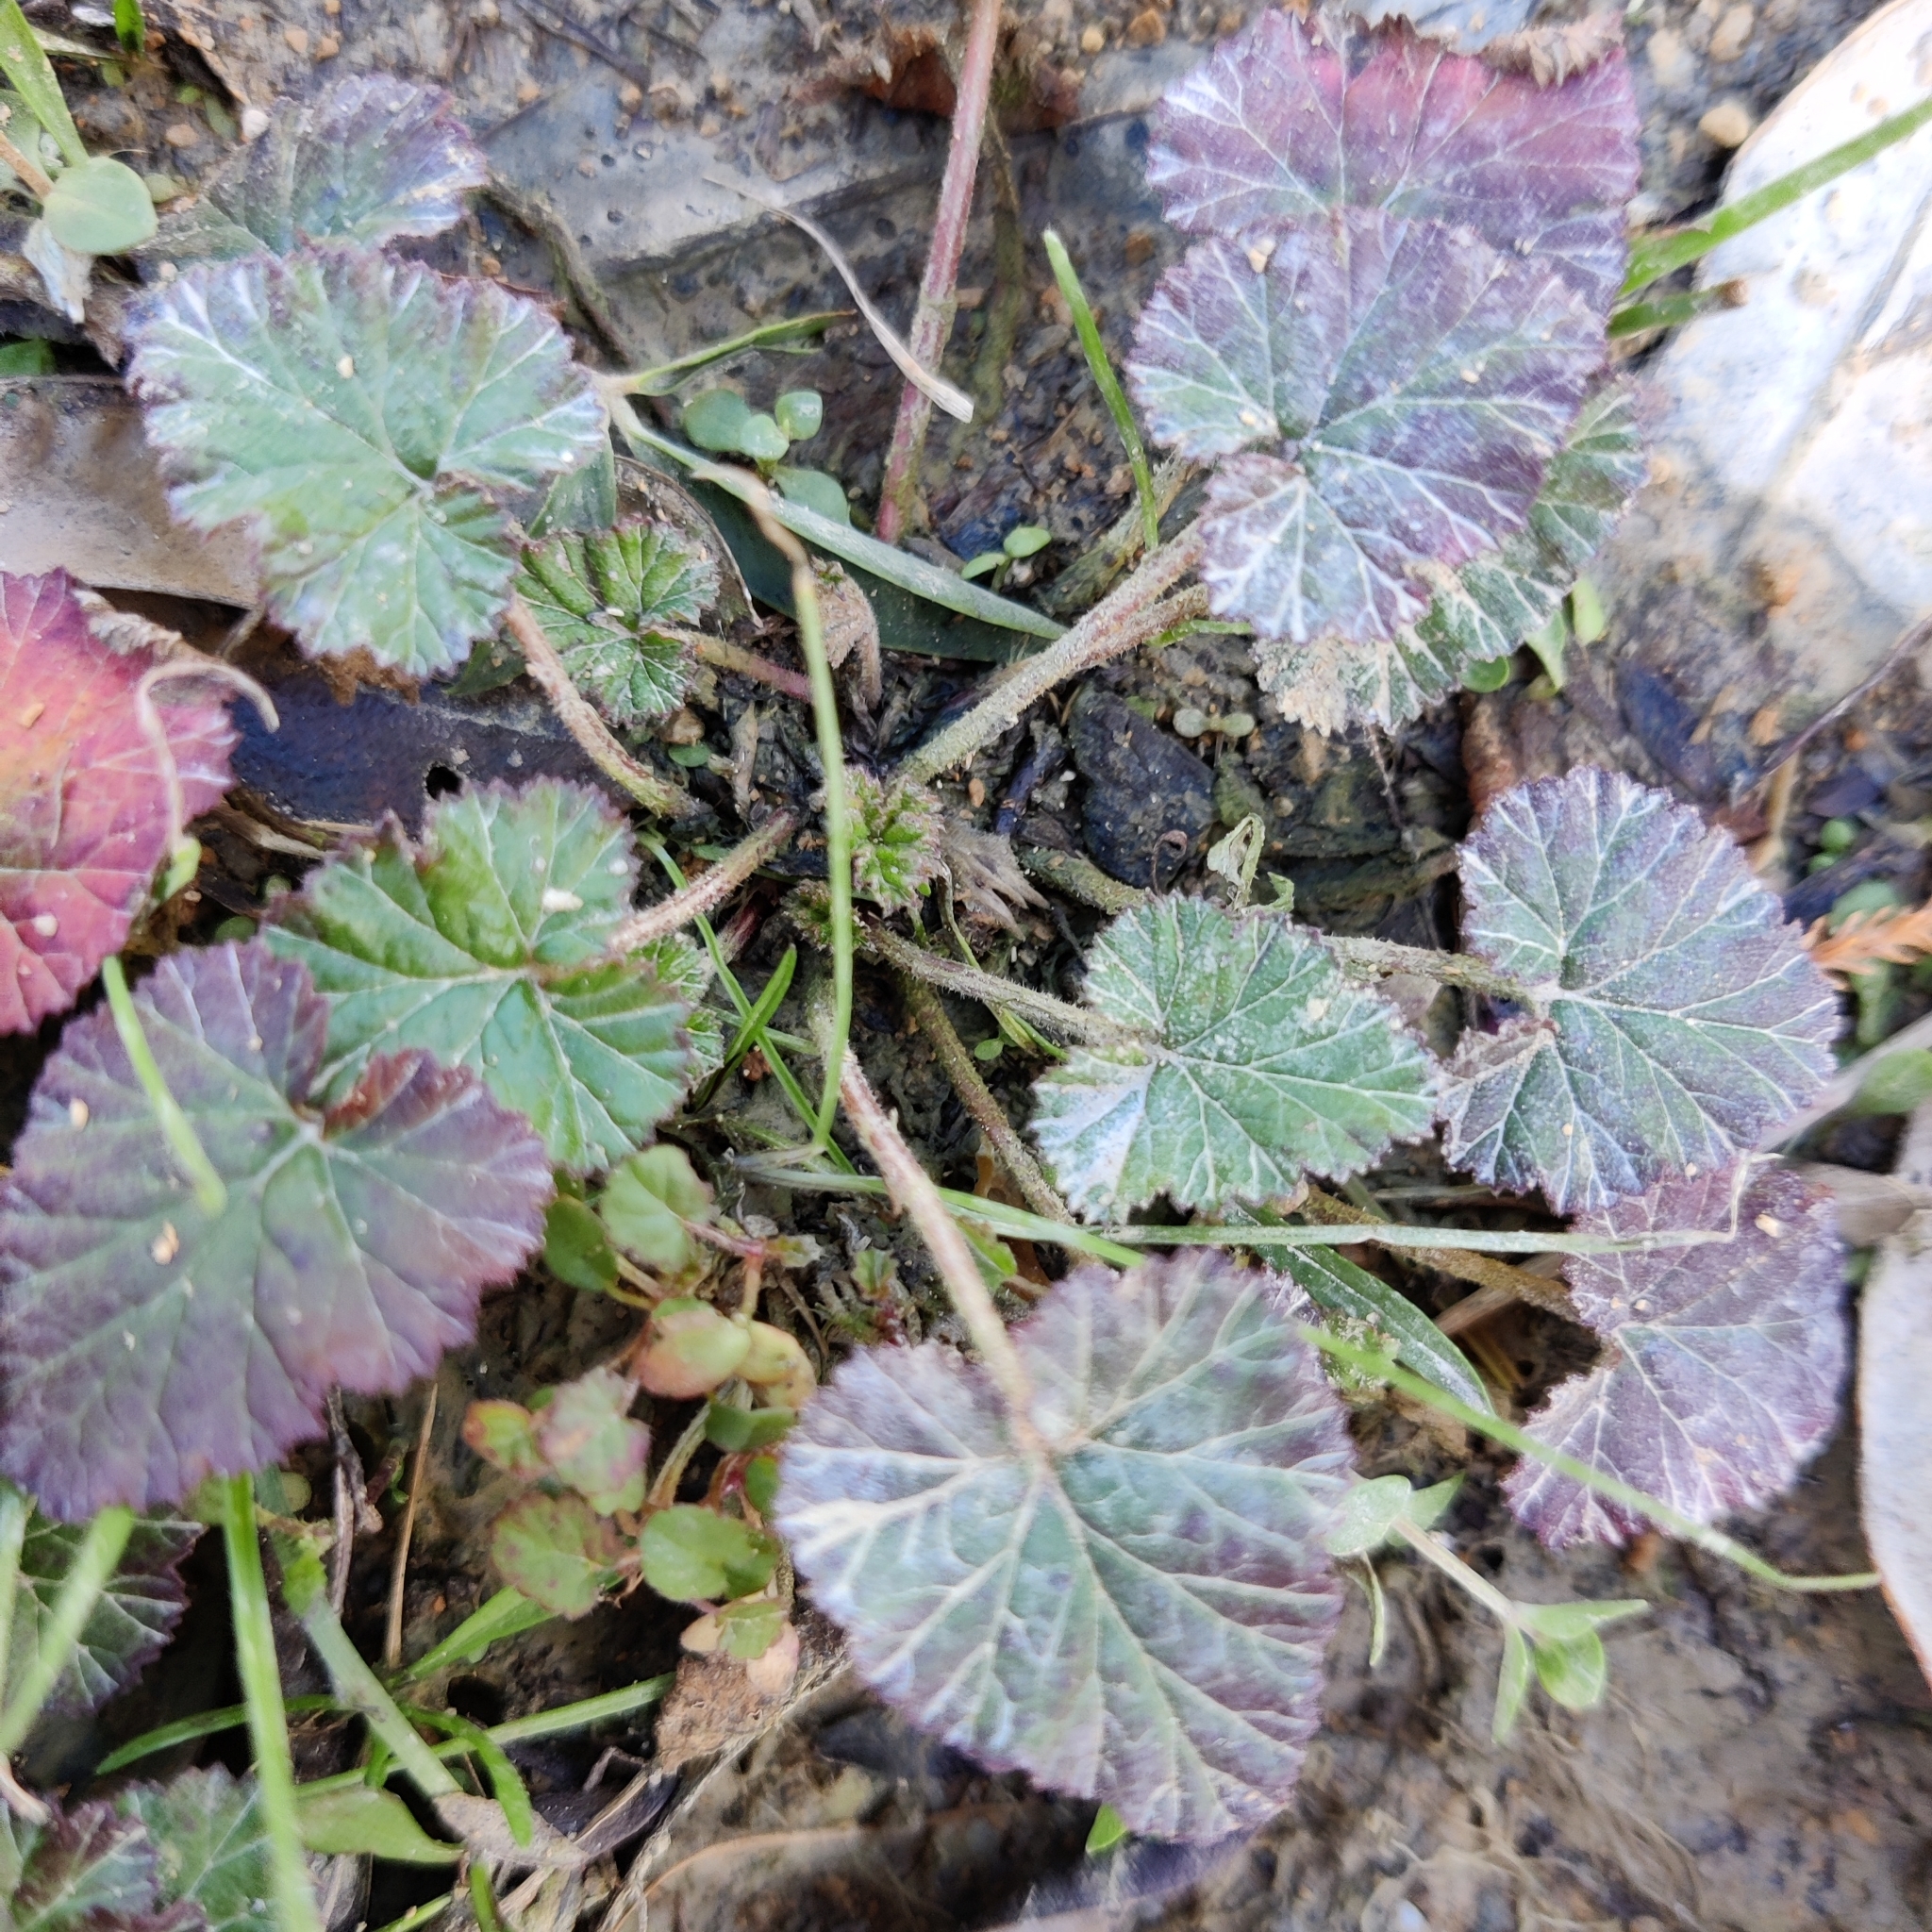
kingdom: Plantae
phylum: Tracheophyta
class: Magnoliopsida
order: Geraniales
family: Geraniaceae
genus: Pelargonium
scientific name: Pelargonium inodorum
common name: Kopata geranium
